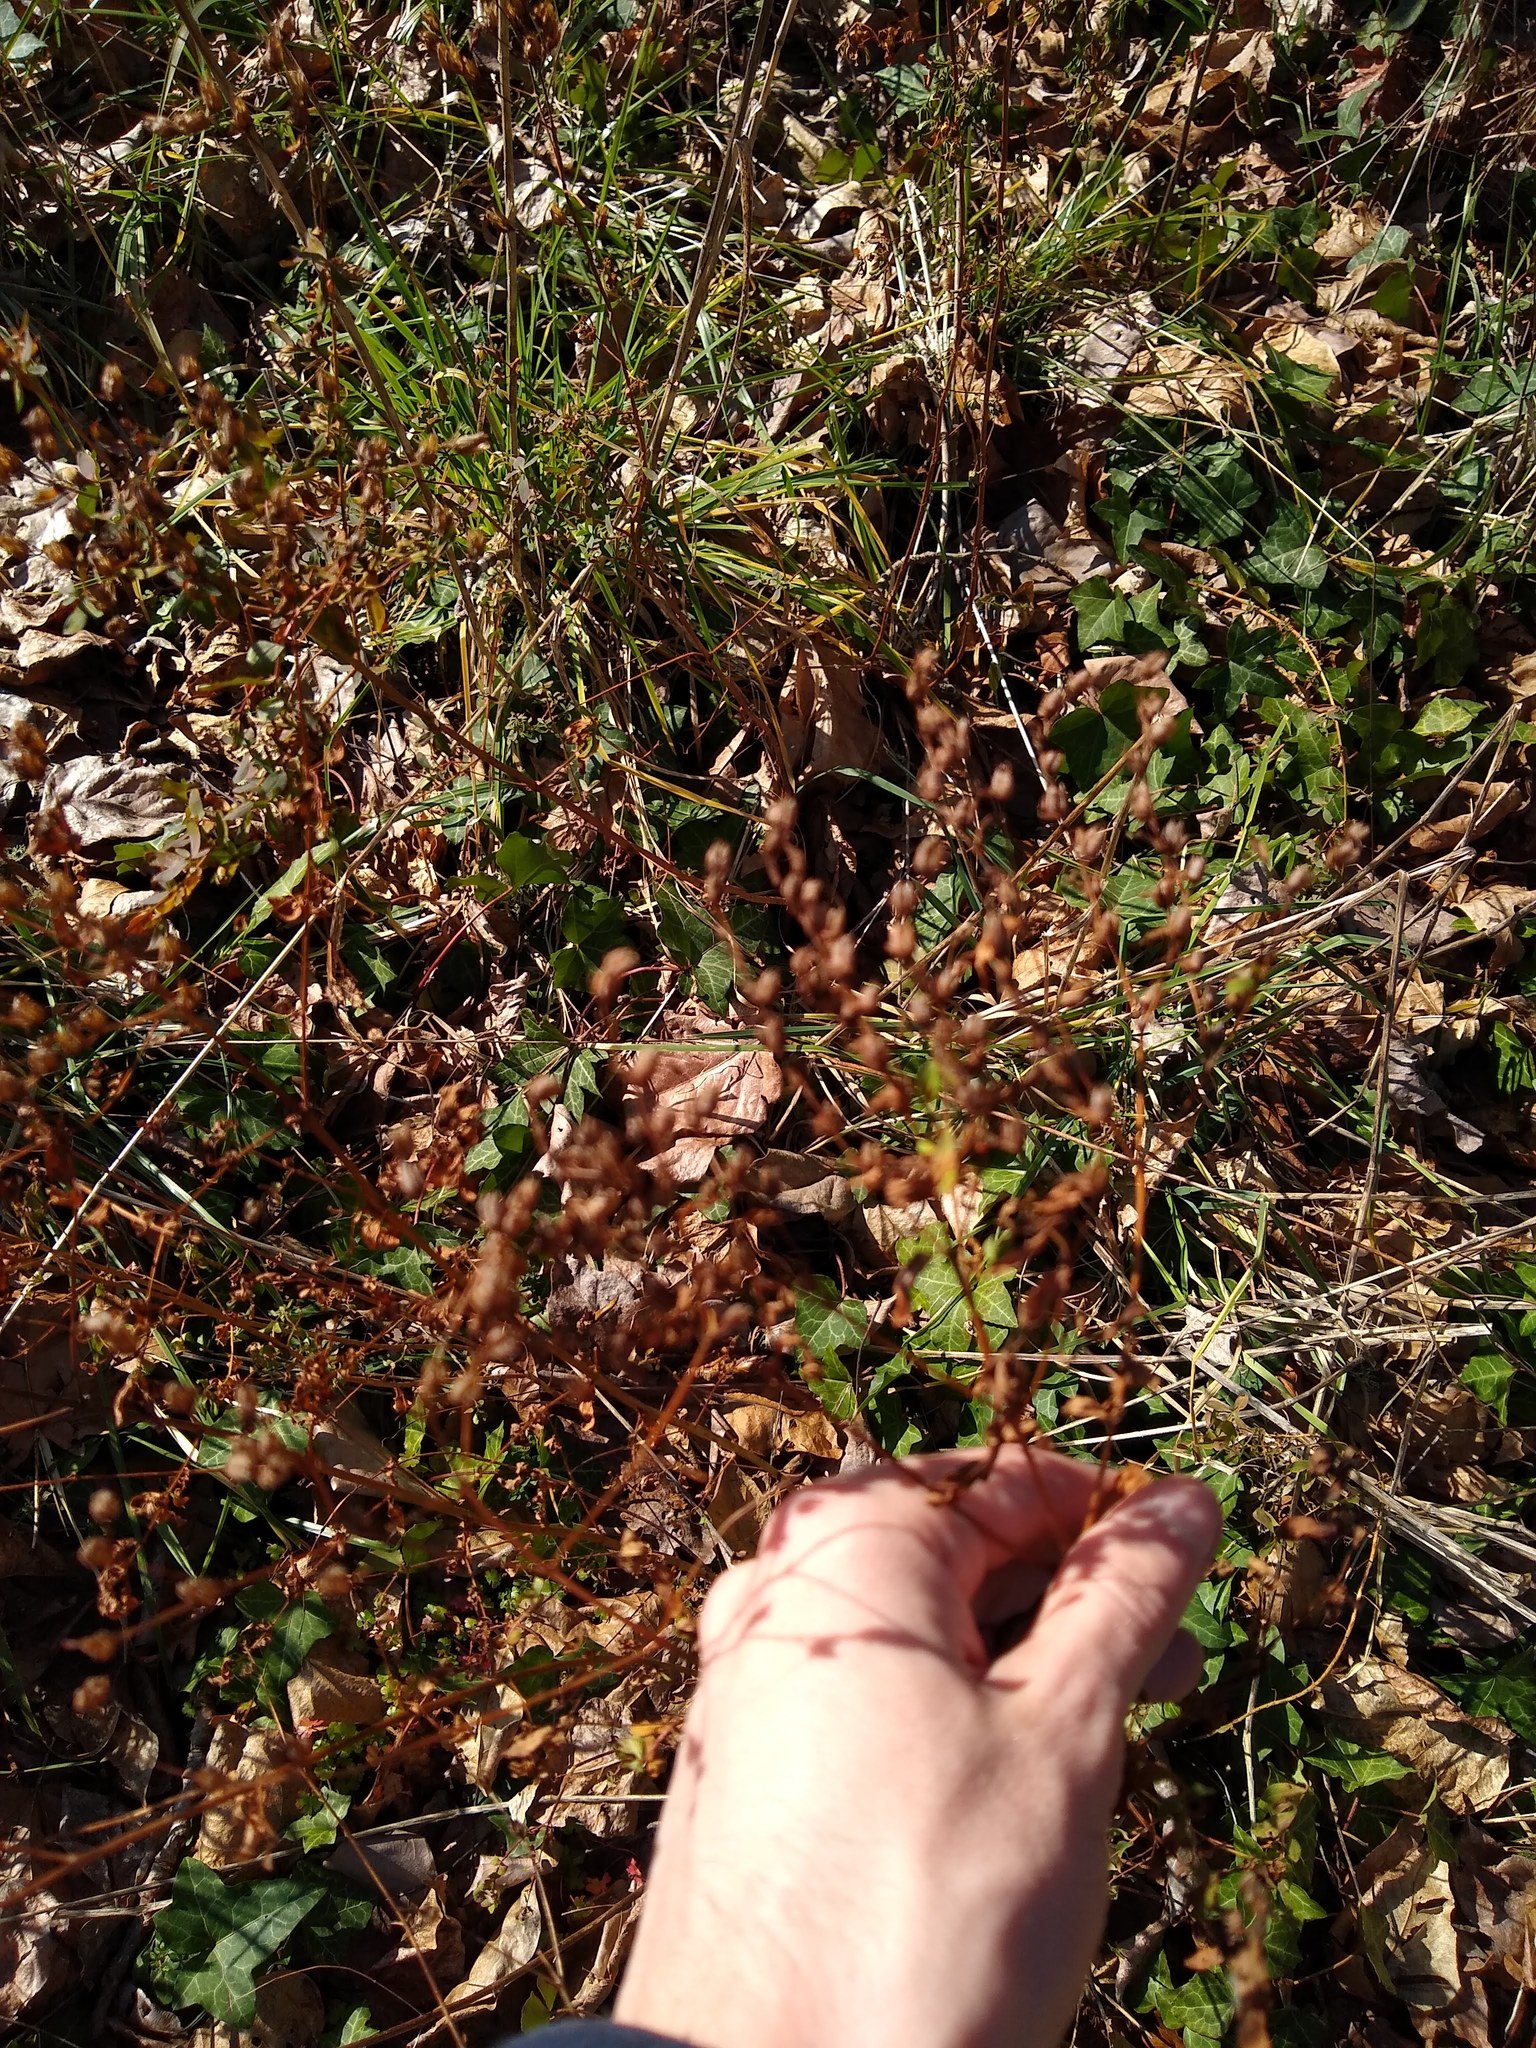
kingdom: Plantae
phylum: Tracheophyta
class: Magnoliopsida
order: Malpighiales
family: Hypericaceae
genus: Hypericum
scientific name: Hypericum perforatum
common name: Common st. johnswort
